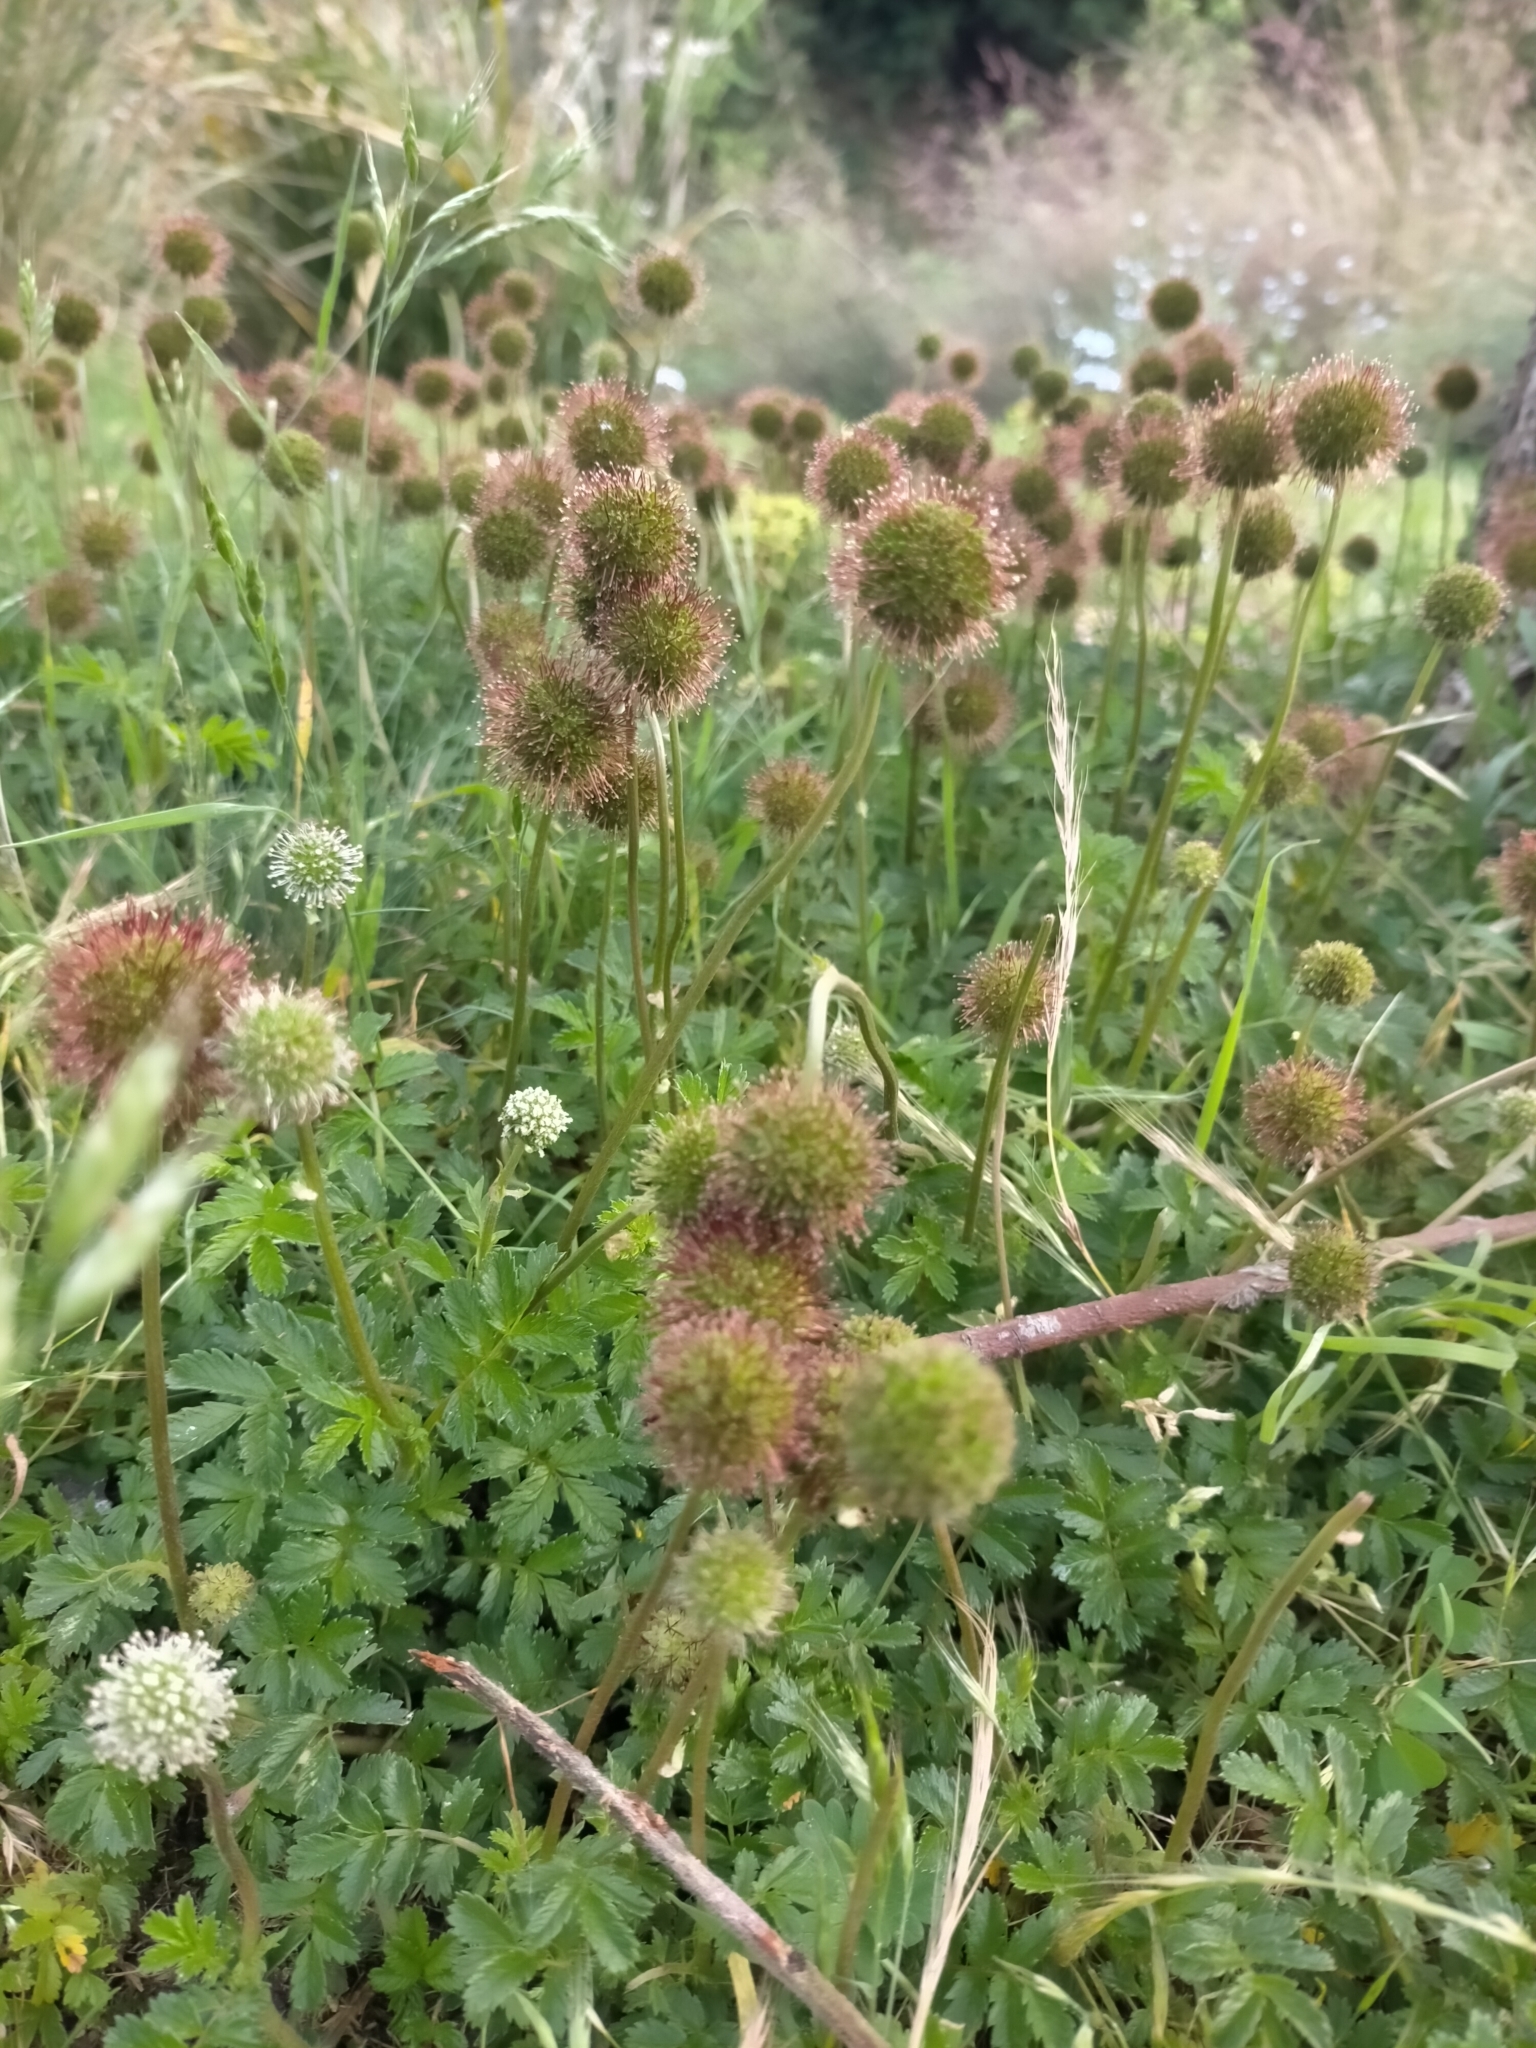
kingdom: Plantae
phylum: Tracheophyta
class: Magnoliopsida
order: Rosales
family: Rosaceae
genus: Acaena
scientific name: Acaena novae-zelandiae
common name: Pirri-pirri-bur
